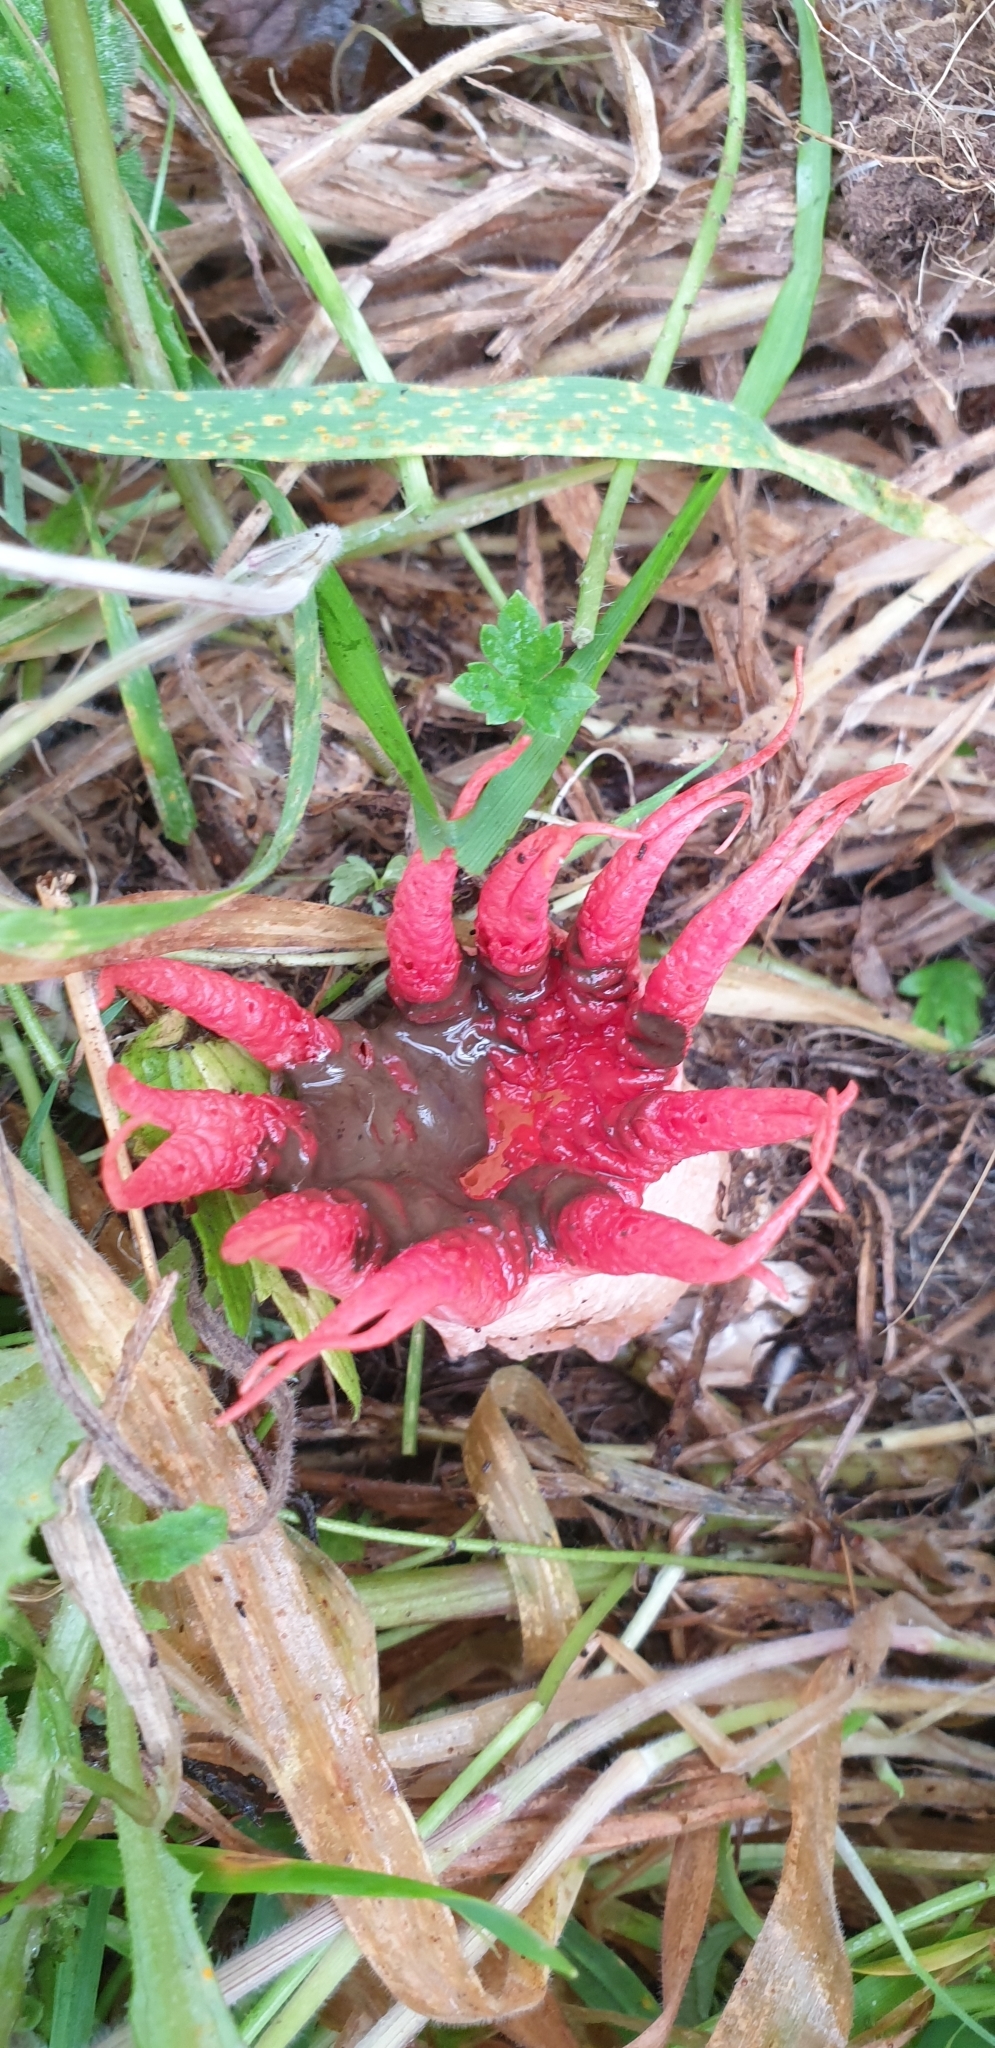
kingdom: Fungi
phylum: Basidiomycota
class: Agaricomycetes
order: Phallales
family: Phallaceae
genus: Aseroe
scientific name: Aseroe rubra
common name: Starfish fungus
